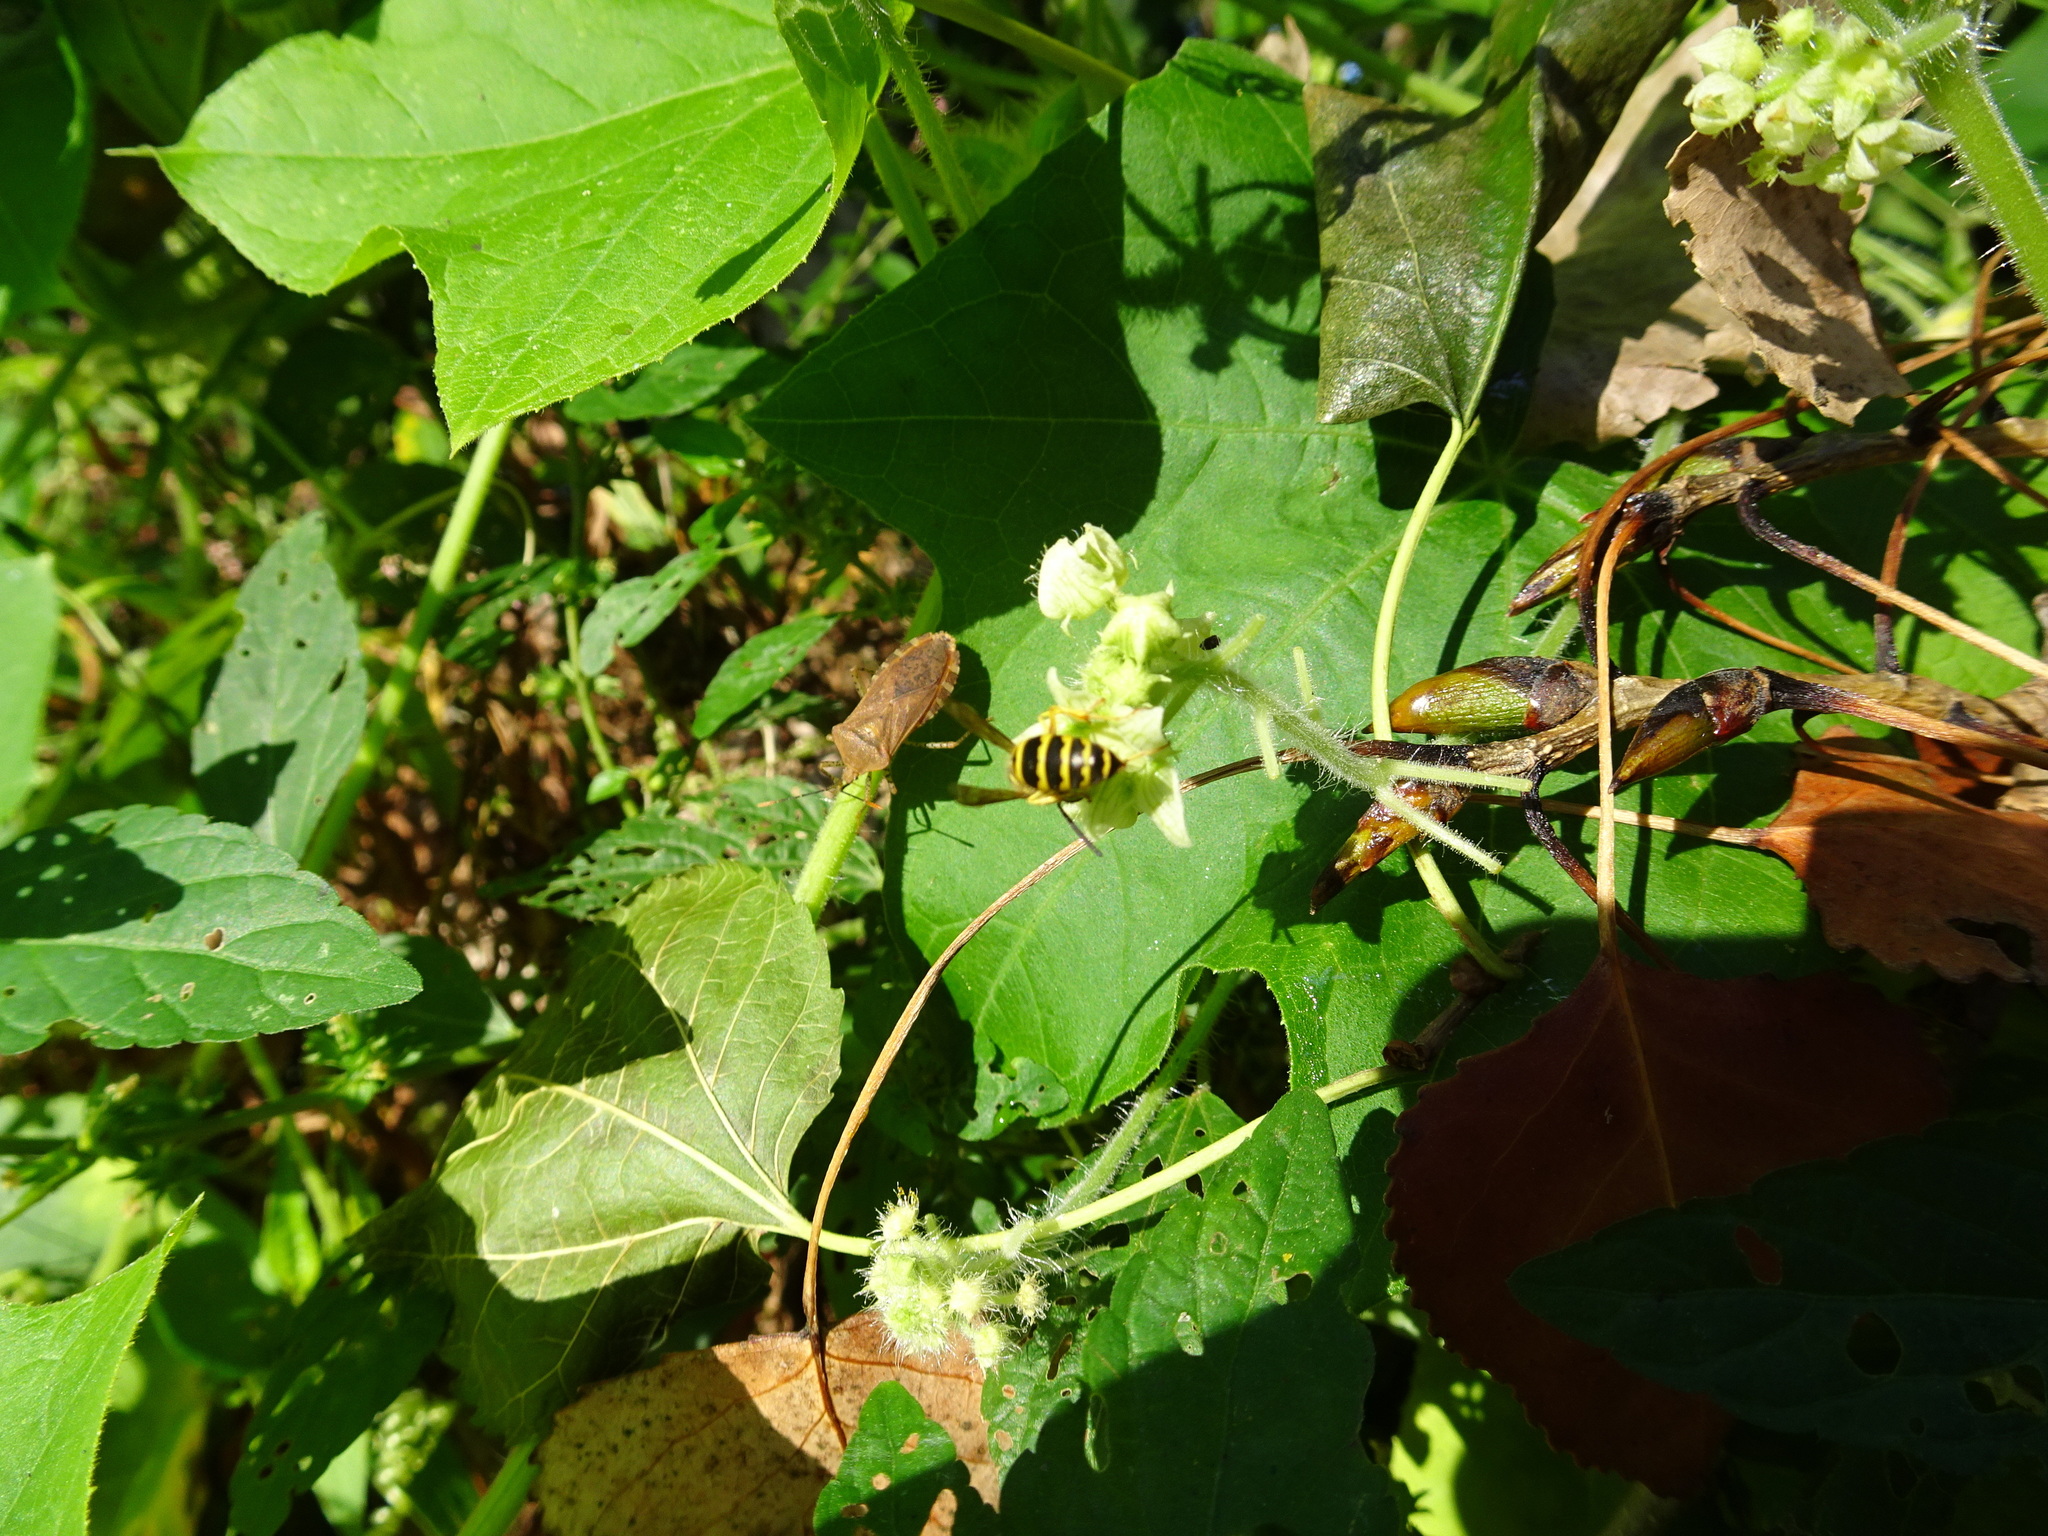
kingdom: Plantae
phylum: Tracheophyta
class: Magnoliopsida
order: Cucurbitales
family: Cucurbitaceae
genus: Sicyos
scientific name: Sicyos angulatus
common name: Angled burr cucumber
